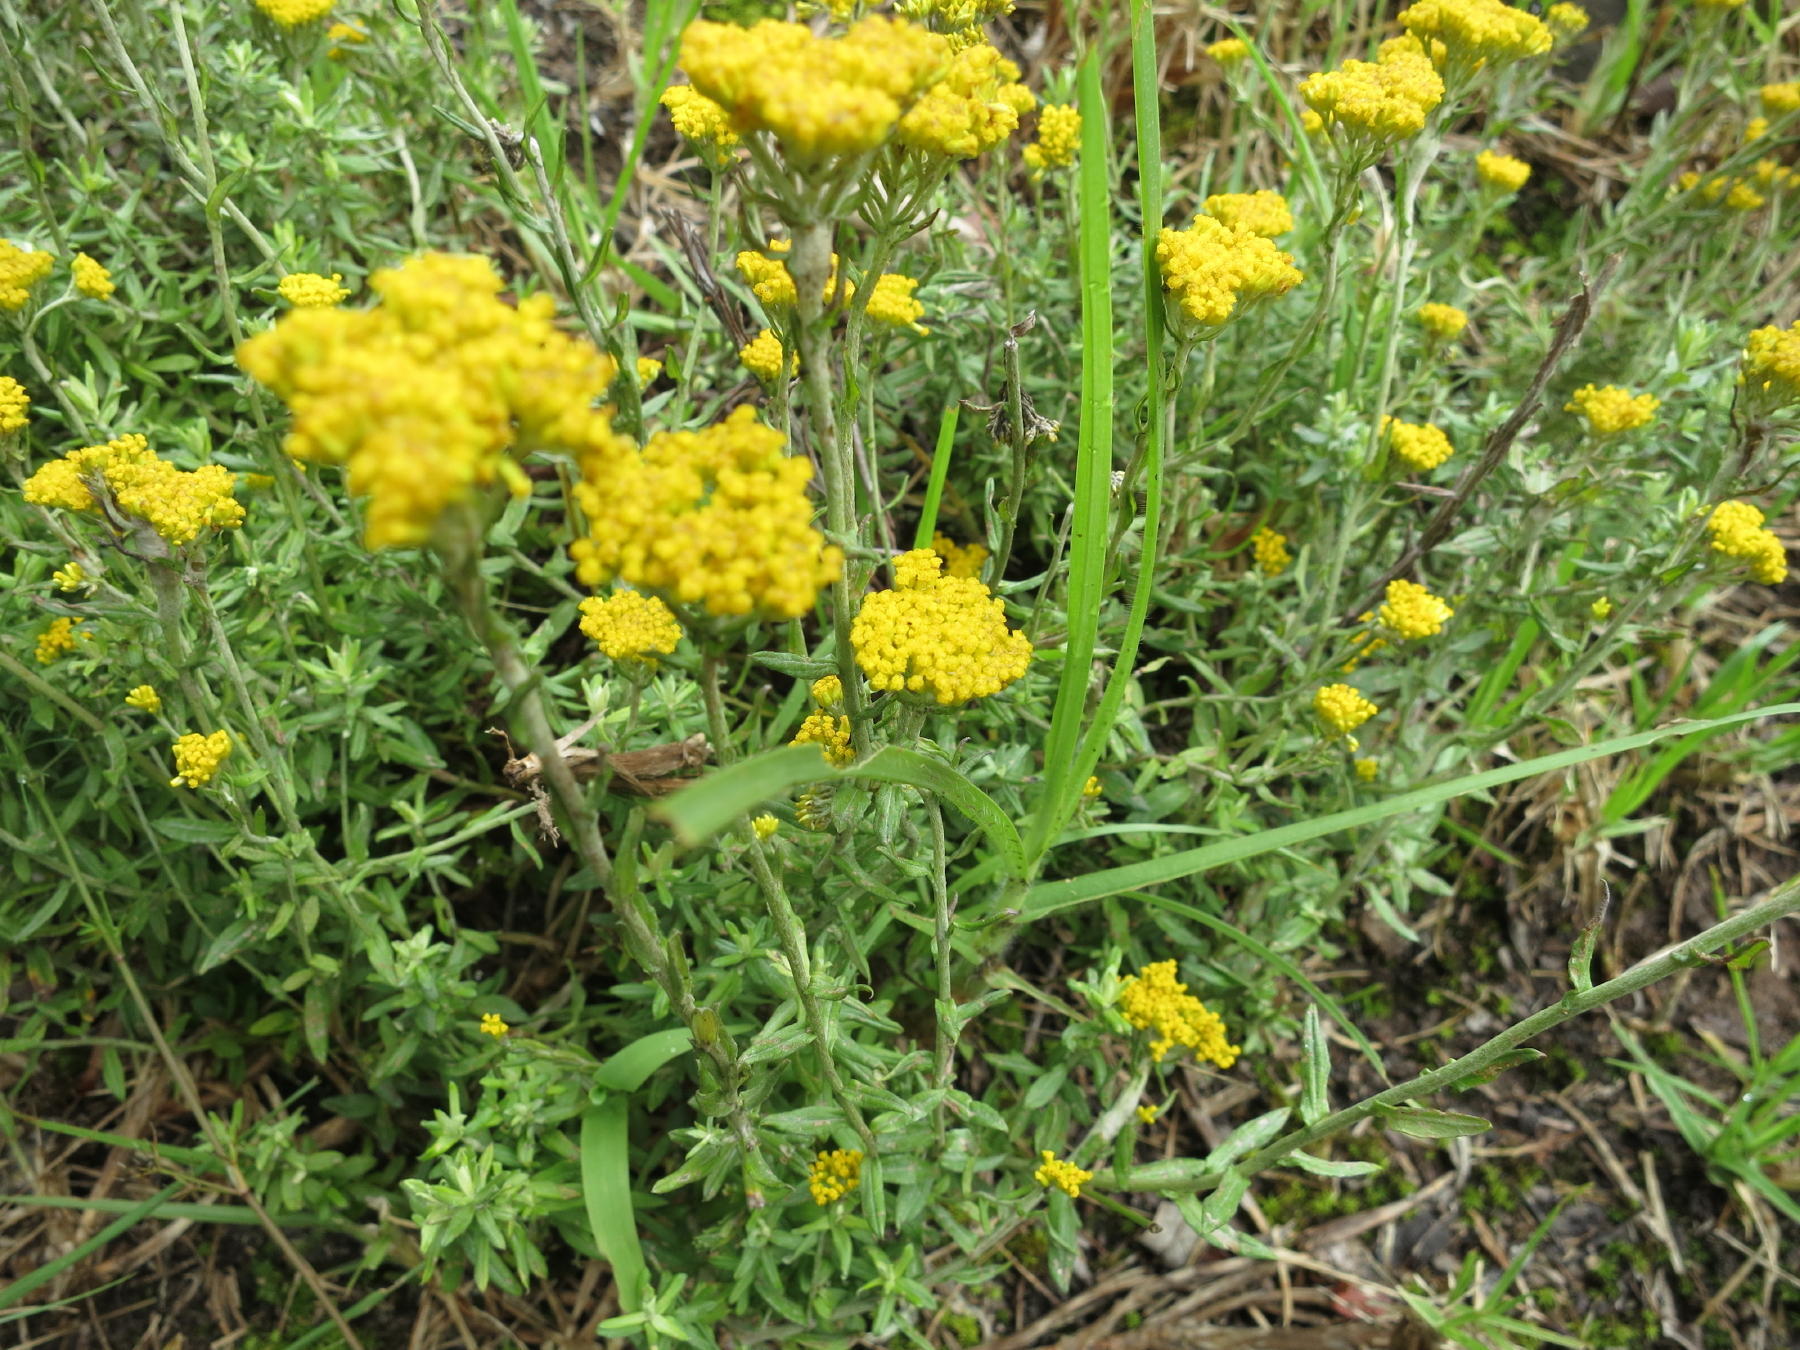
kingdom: Plantae
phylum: Tracheophyta
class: Magnoliopsida
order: Asterales
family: Asteraceae
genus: Helichrysum
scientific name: Helichrysum cymosum
